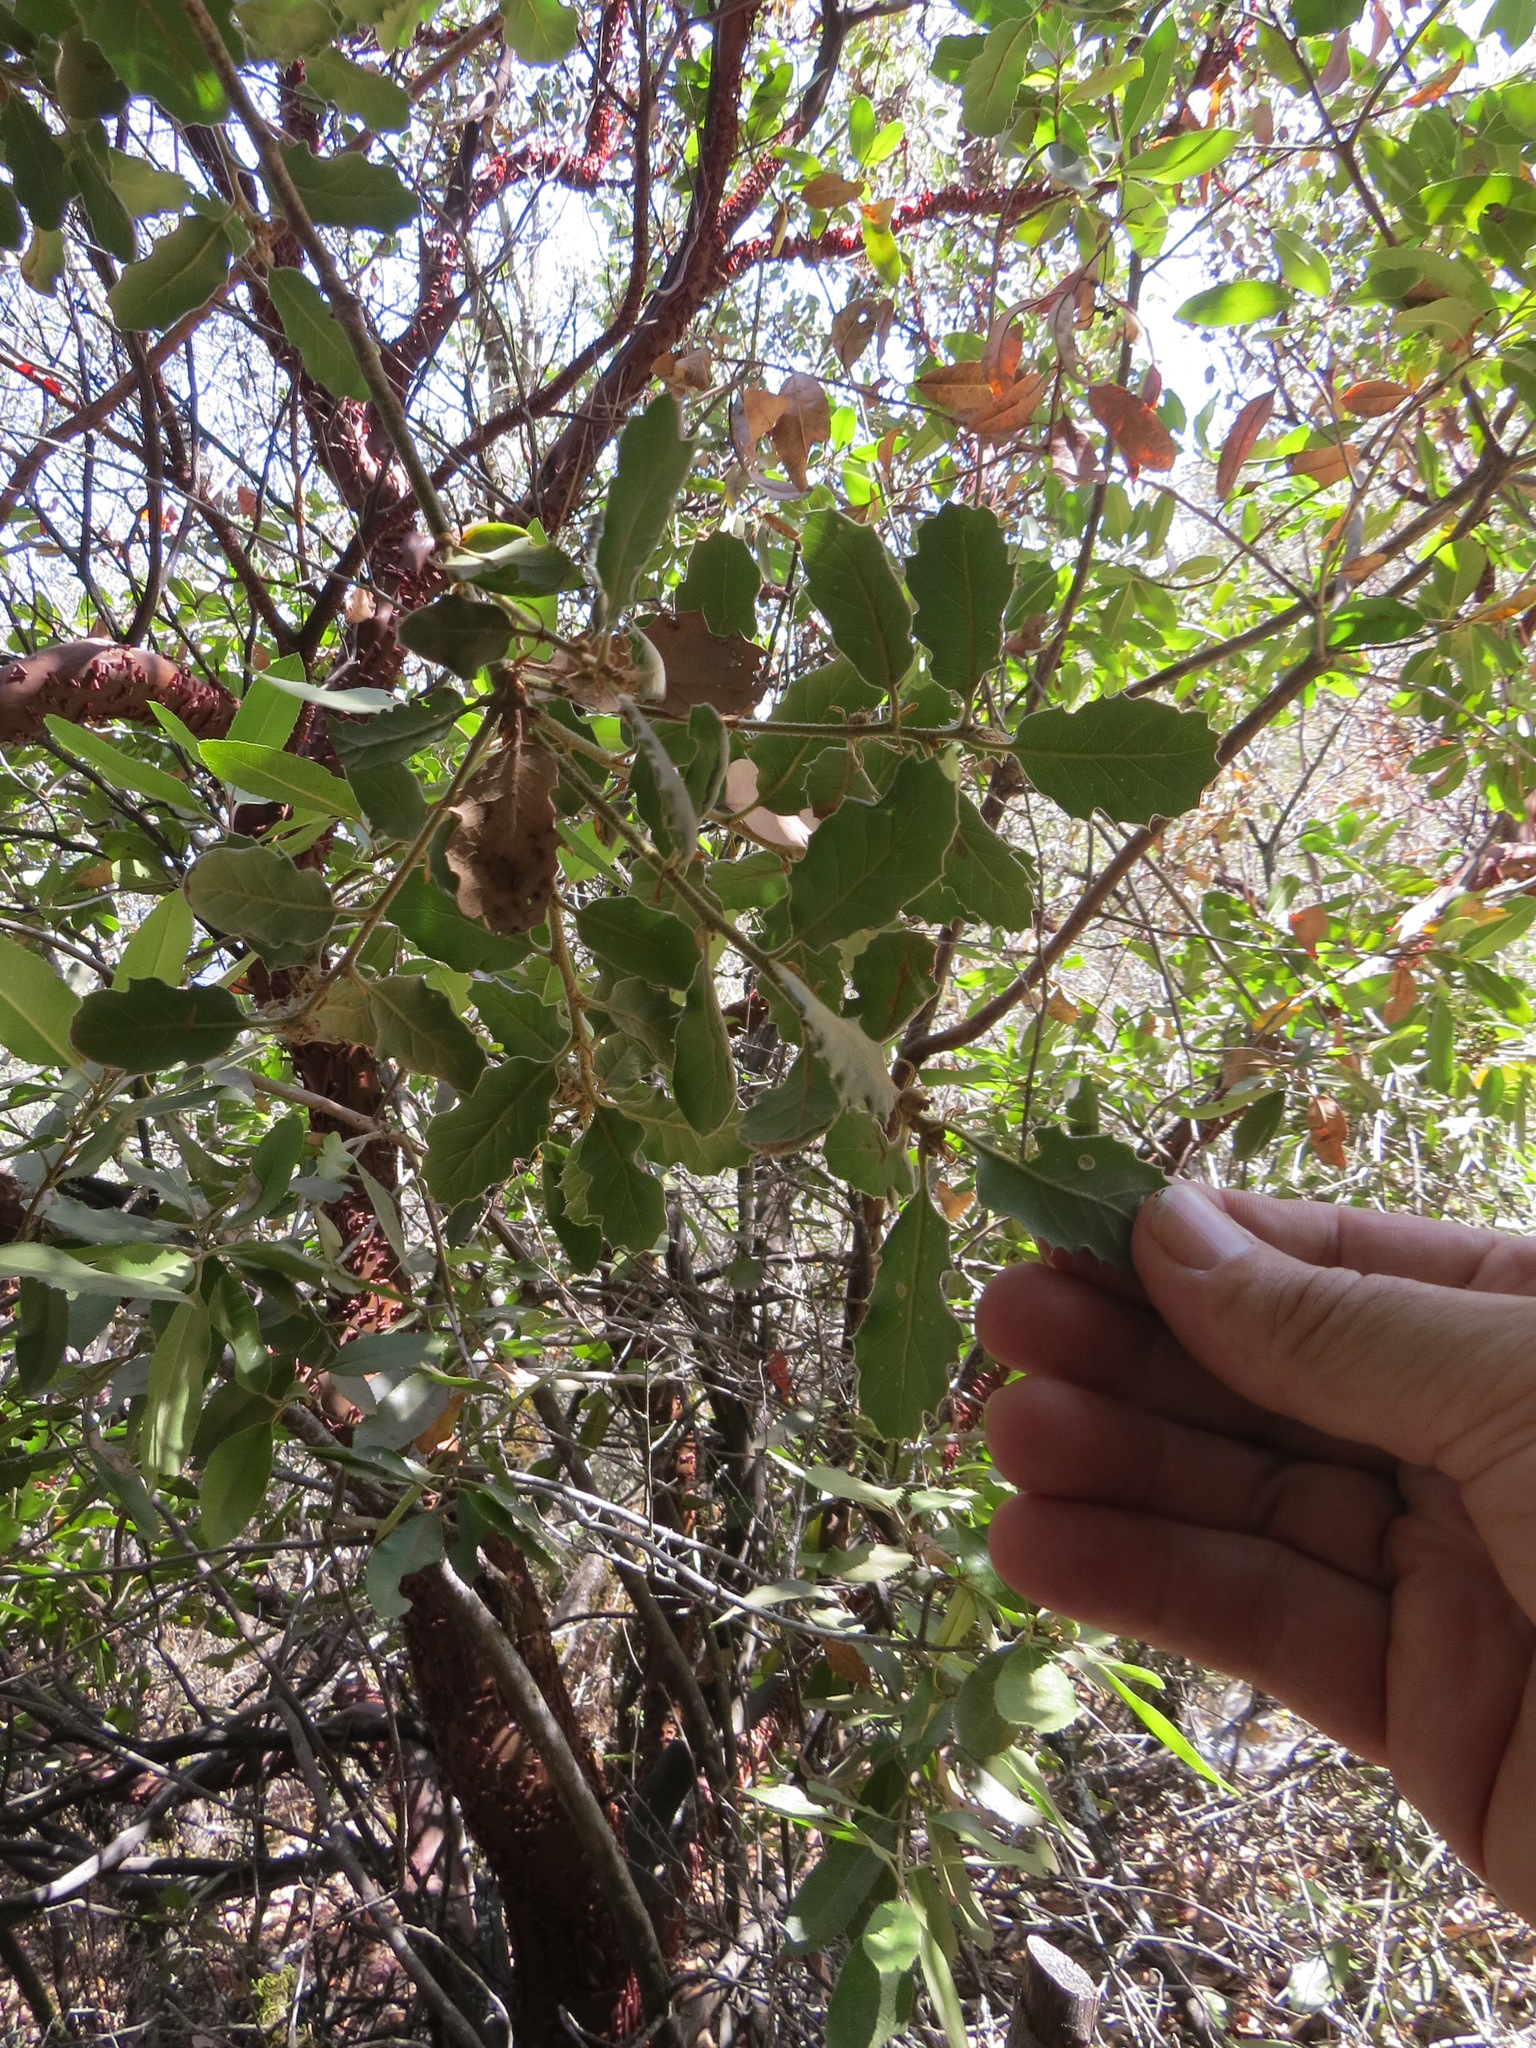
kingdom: Animalia
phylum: Arthropoda
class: Insecta
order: Hymenoptera
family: Cynipidae
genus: Andricus
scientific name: Andricus
